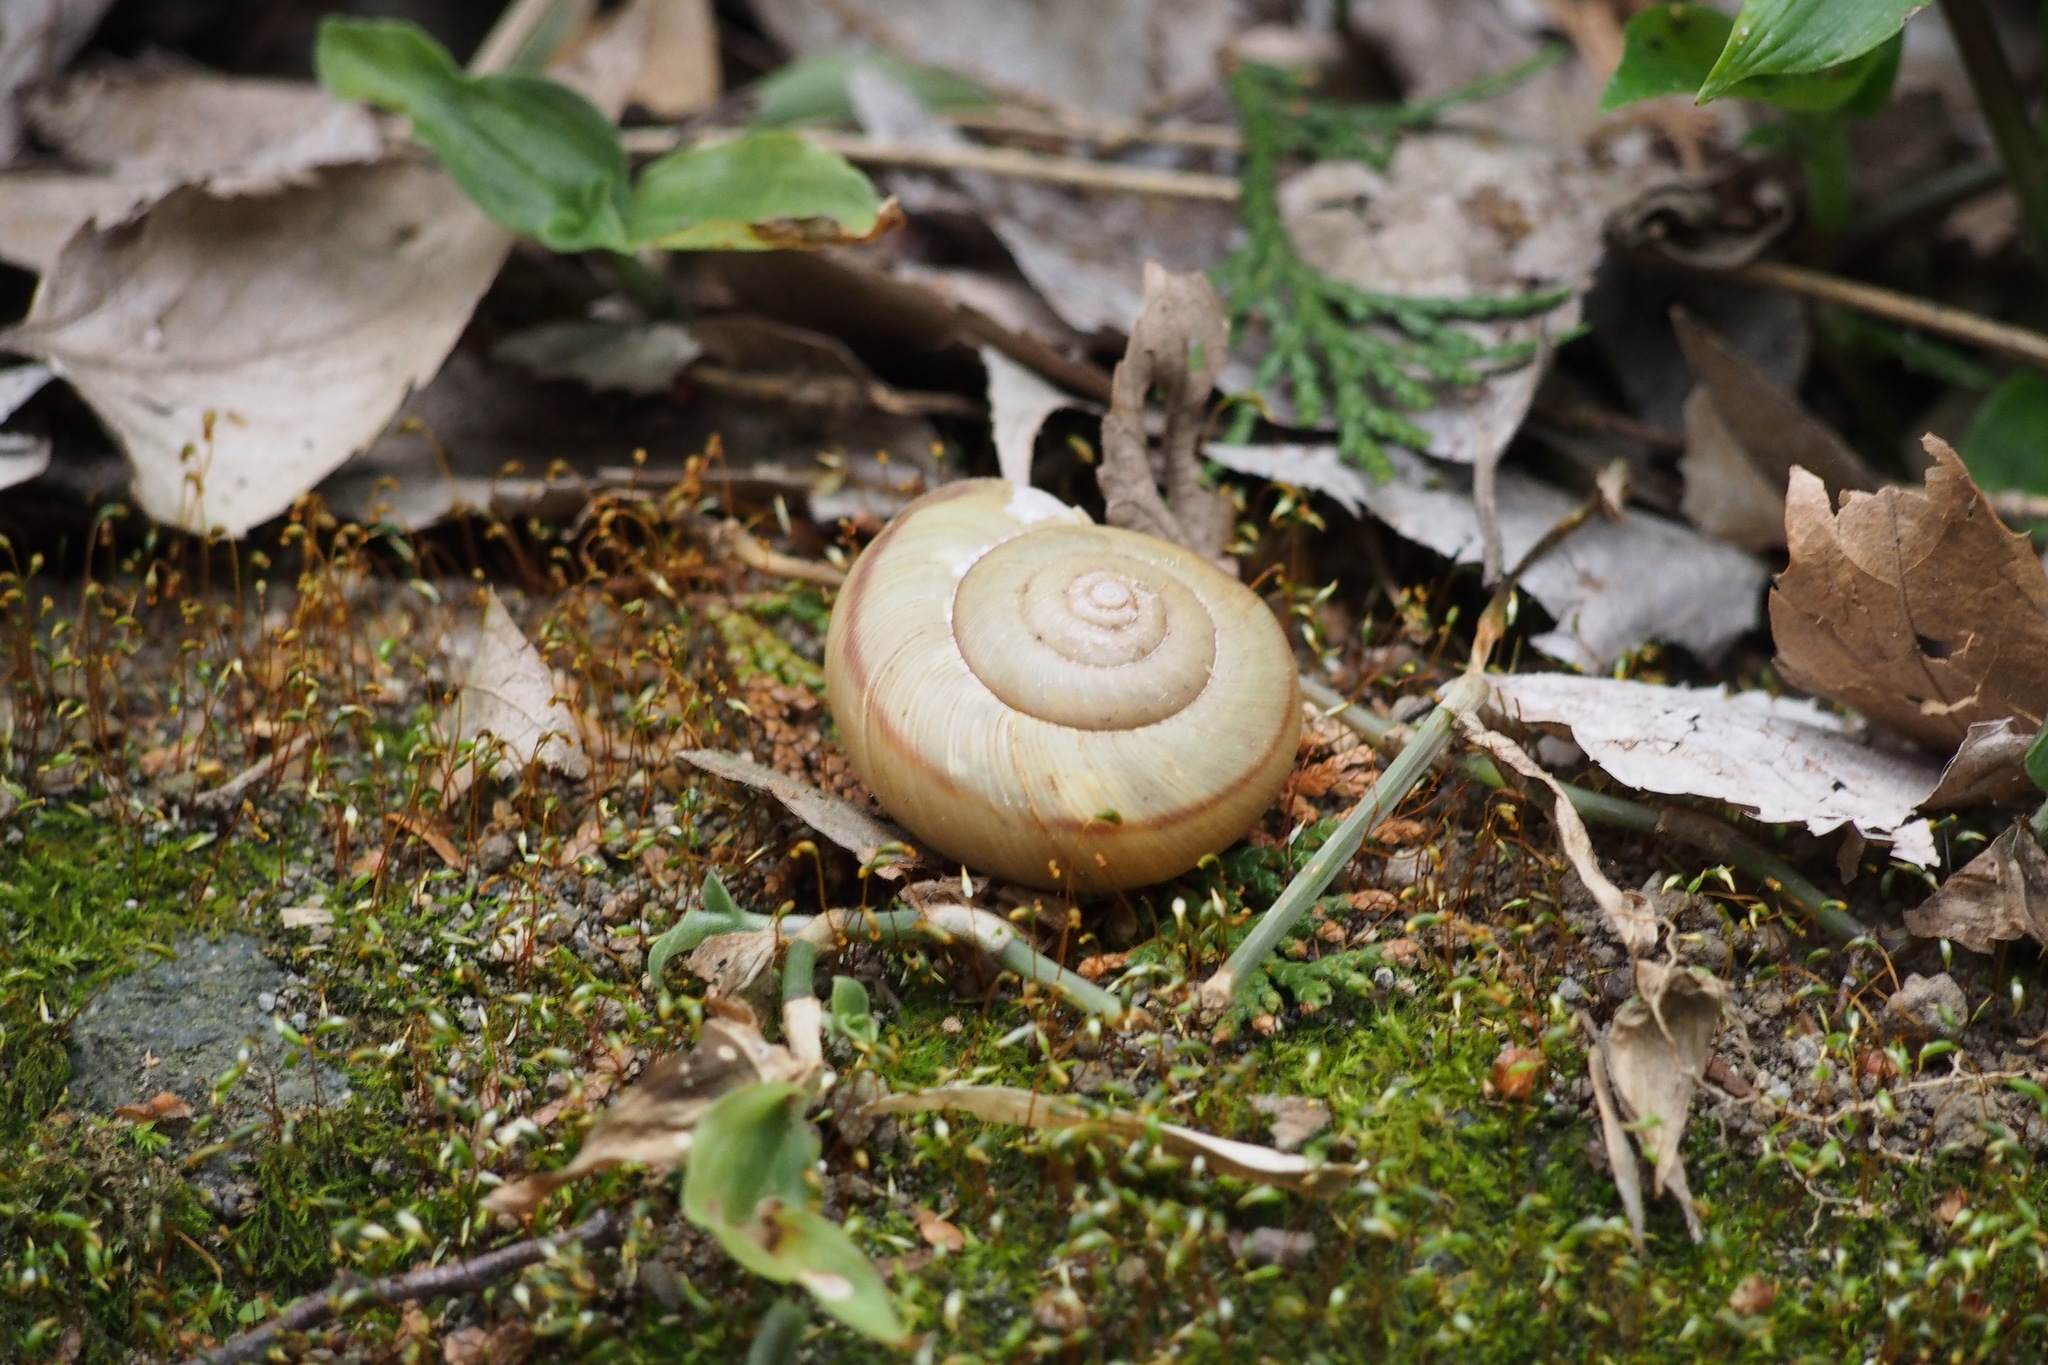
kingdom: Animalia
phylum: Mollusca
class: Gastropoda
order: Stylommatophora
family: Camaenidae
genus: Euhadra
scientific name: Euhadra peliomphala
